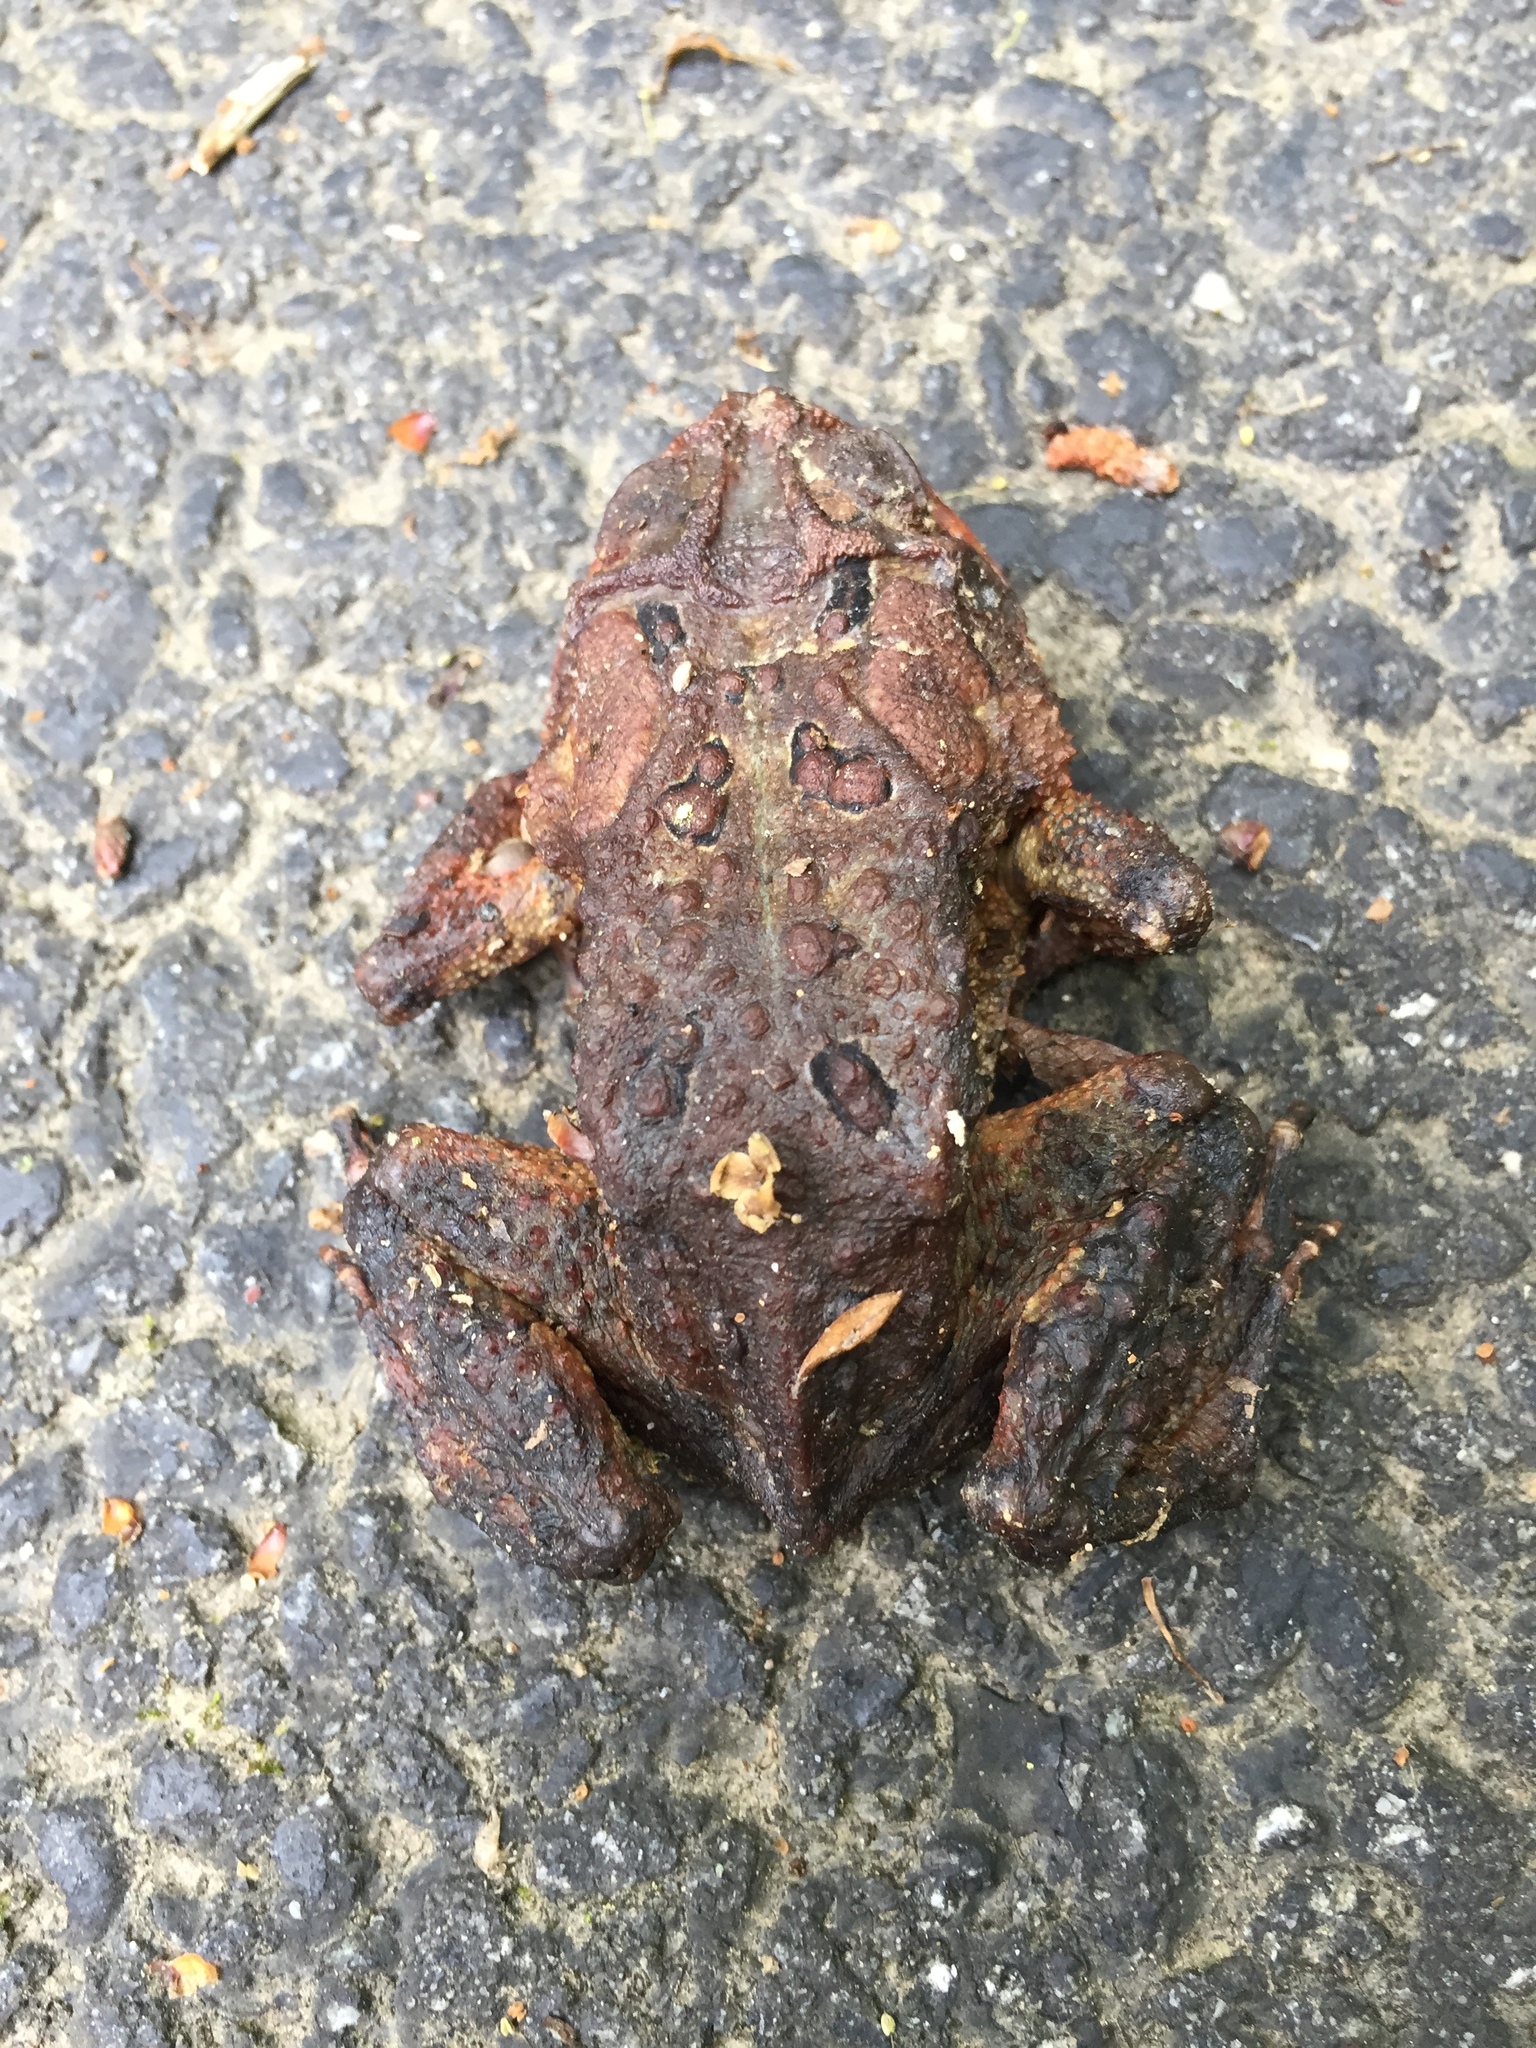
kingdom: Animalia
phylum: Chordata
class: Amphibia
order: Anura
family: Bufonidae
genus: Anaxyrus
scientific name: Anaxyrus americanus
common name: American toad
